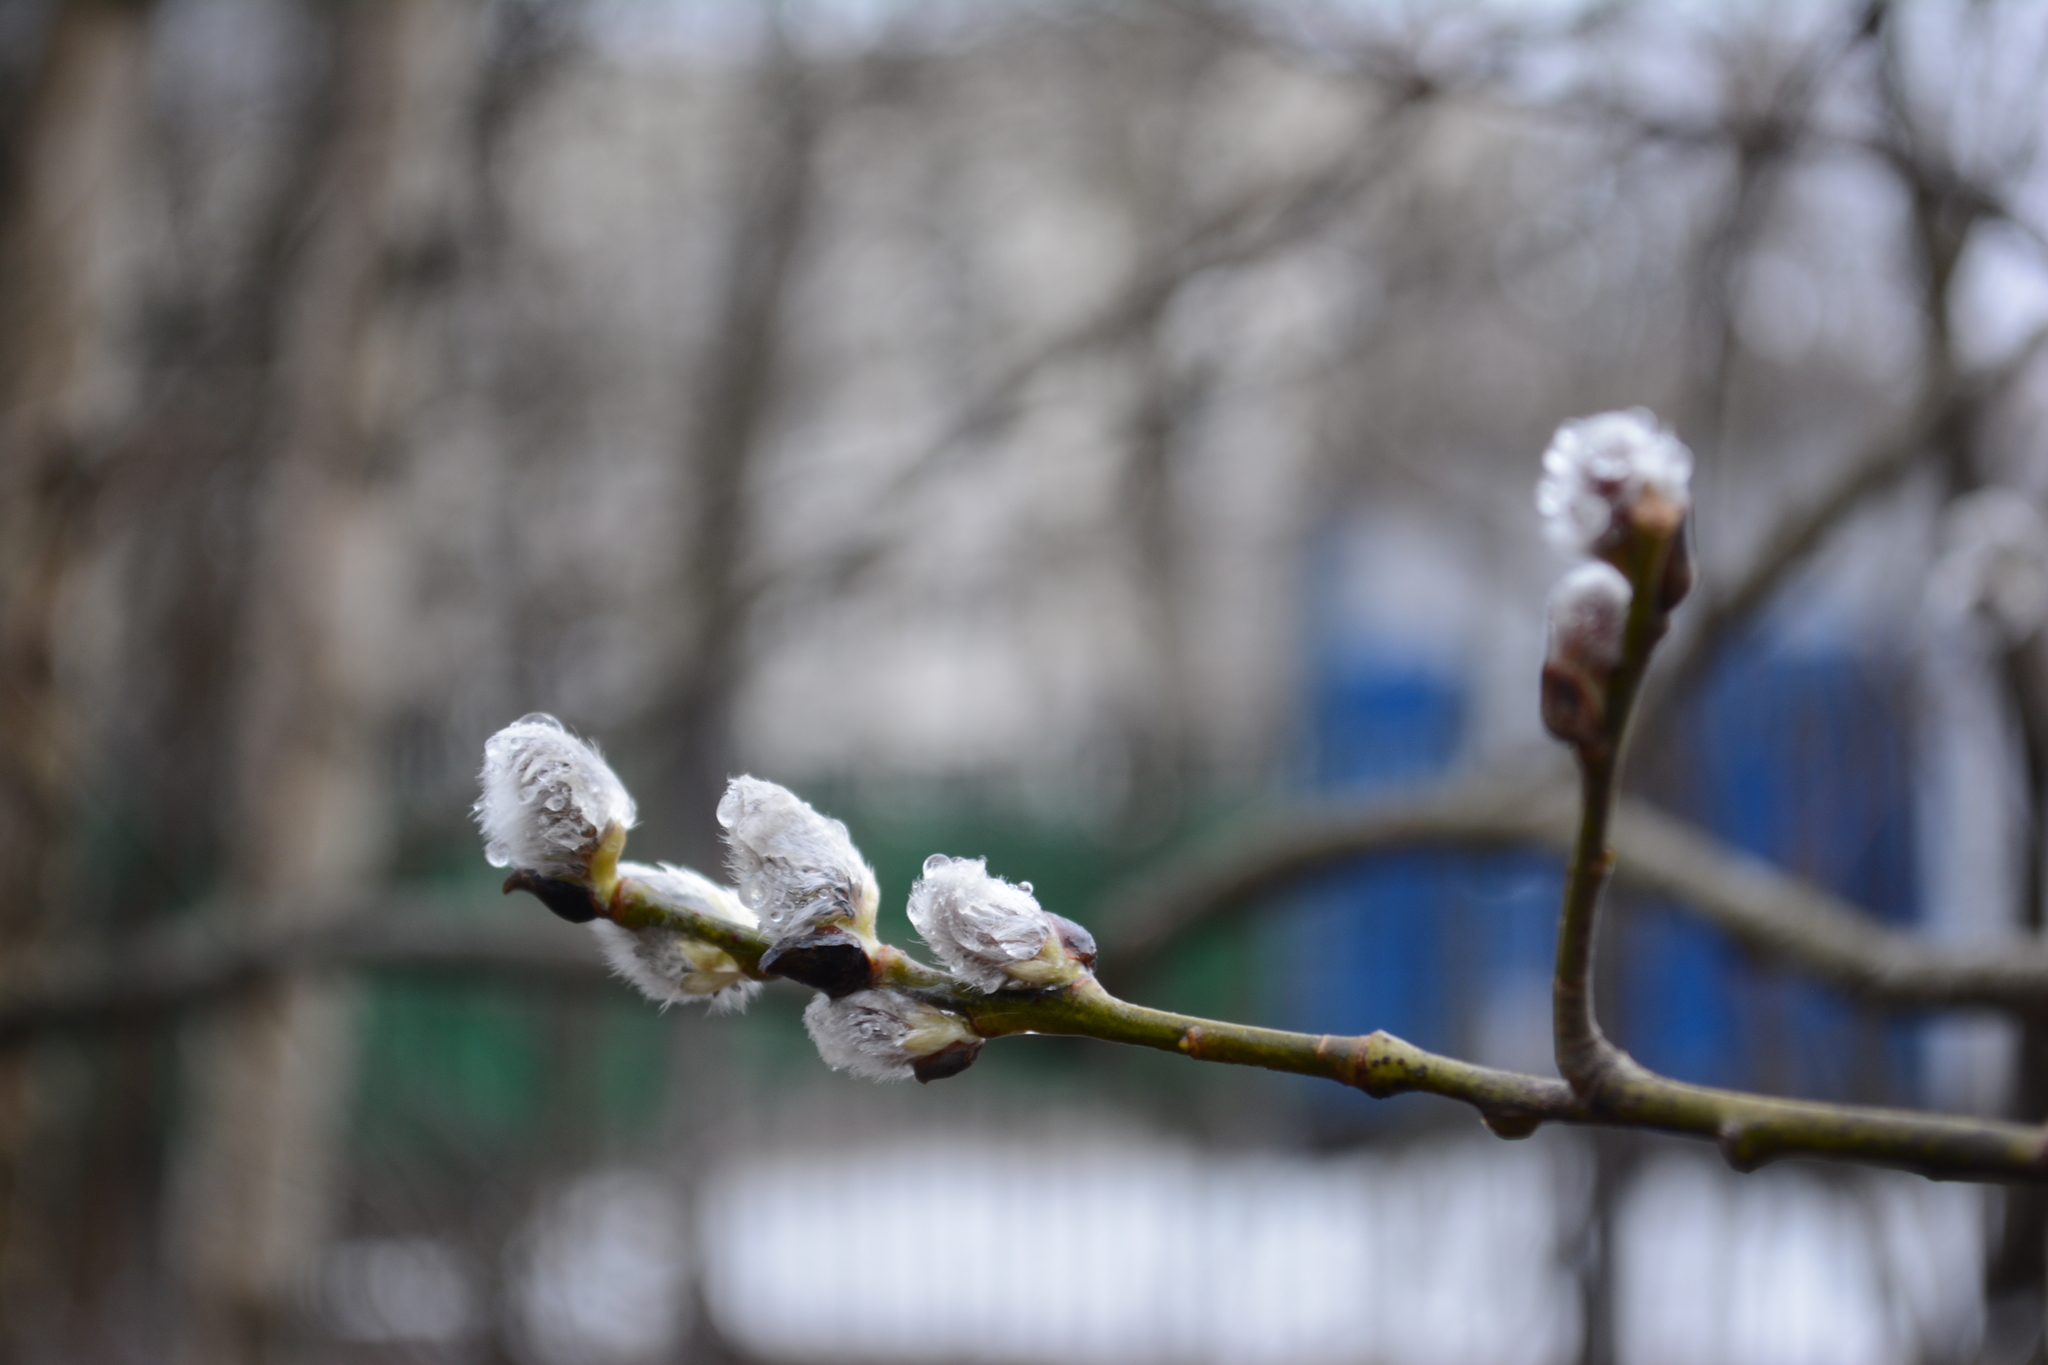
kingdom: Plantae
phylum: Tracheophyta
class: Magnoliopsida
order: Malpighiales
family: Salicaceae
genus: Salix
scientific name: Salix caprea
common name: Goat willow
